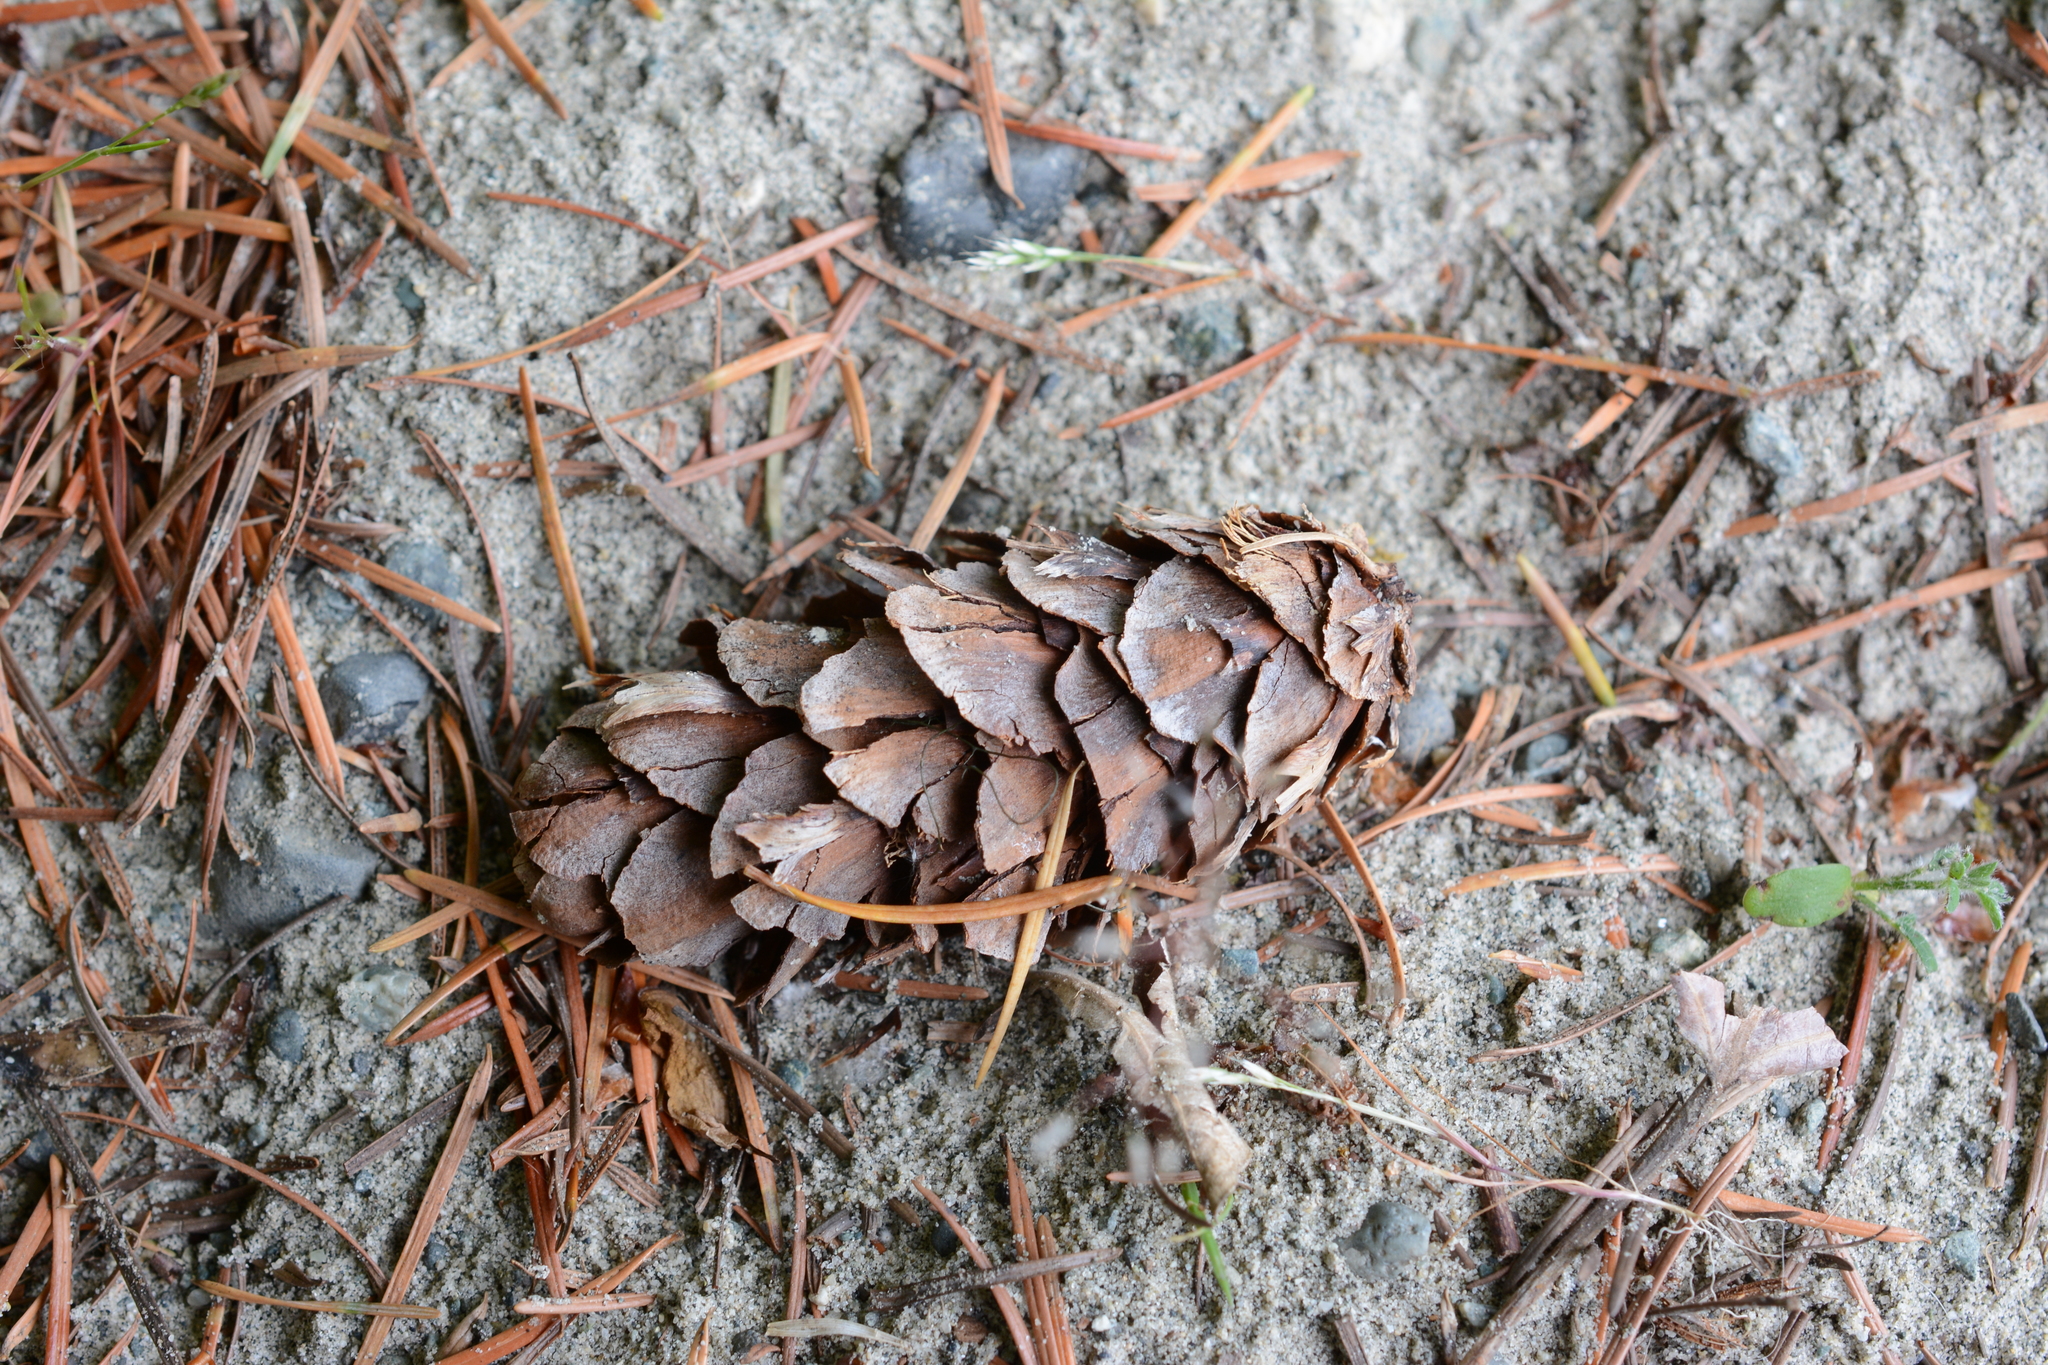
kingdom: Plantae
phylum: Tracheophyta
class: Pinopsida
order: Pinales
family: Pinaceae
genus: Pseudotsuga
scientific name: Pseudotsuga menziesii
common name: Douglas fir
